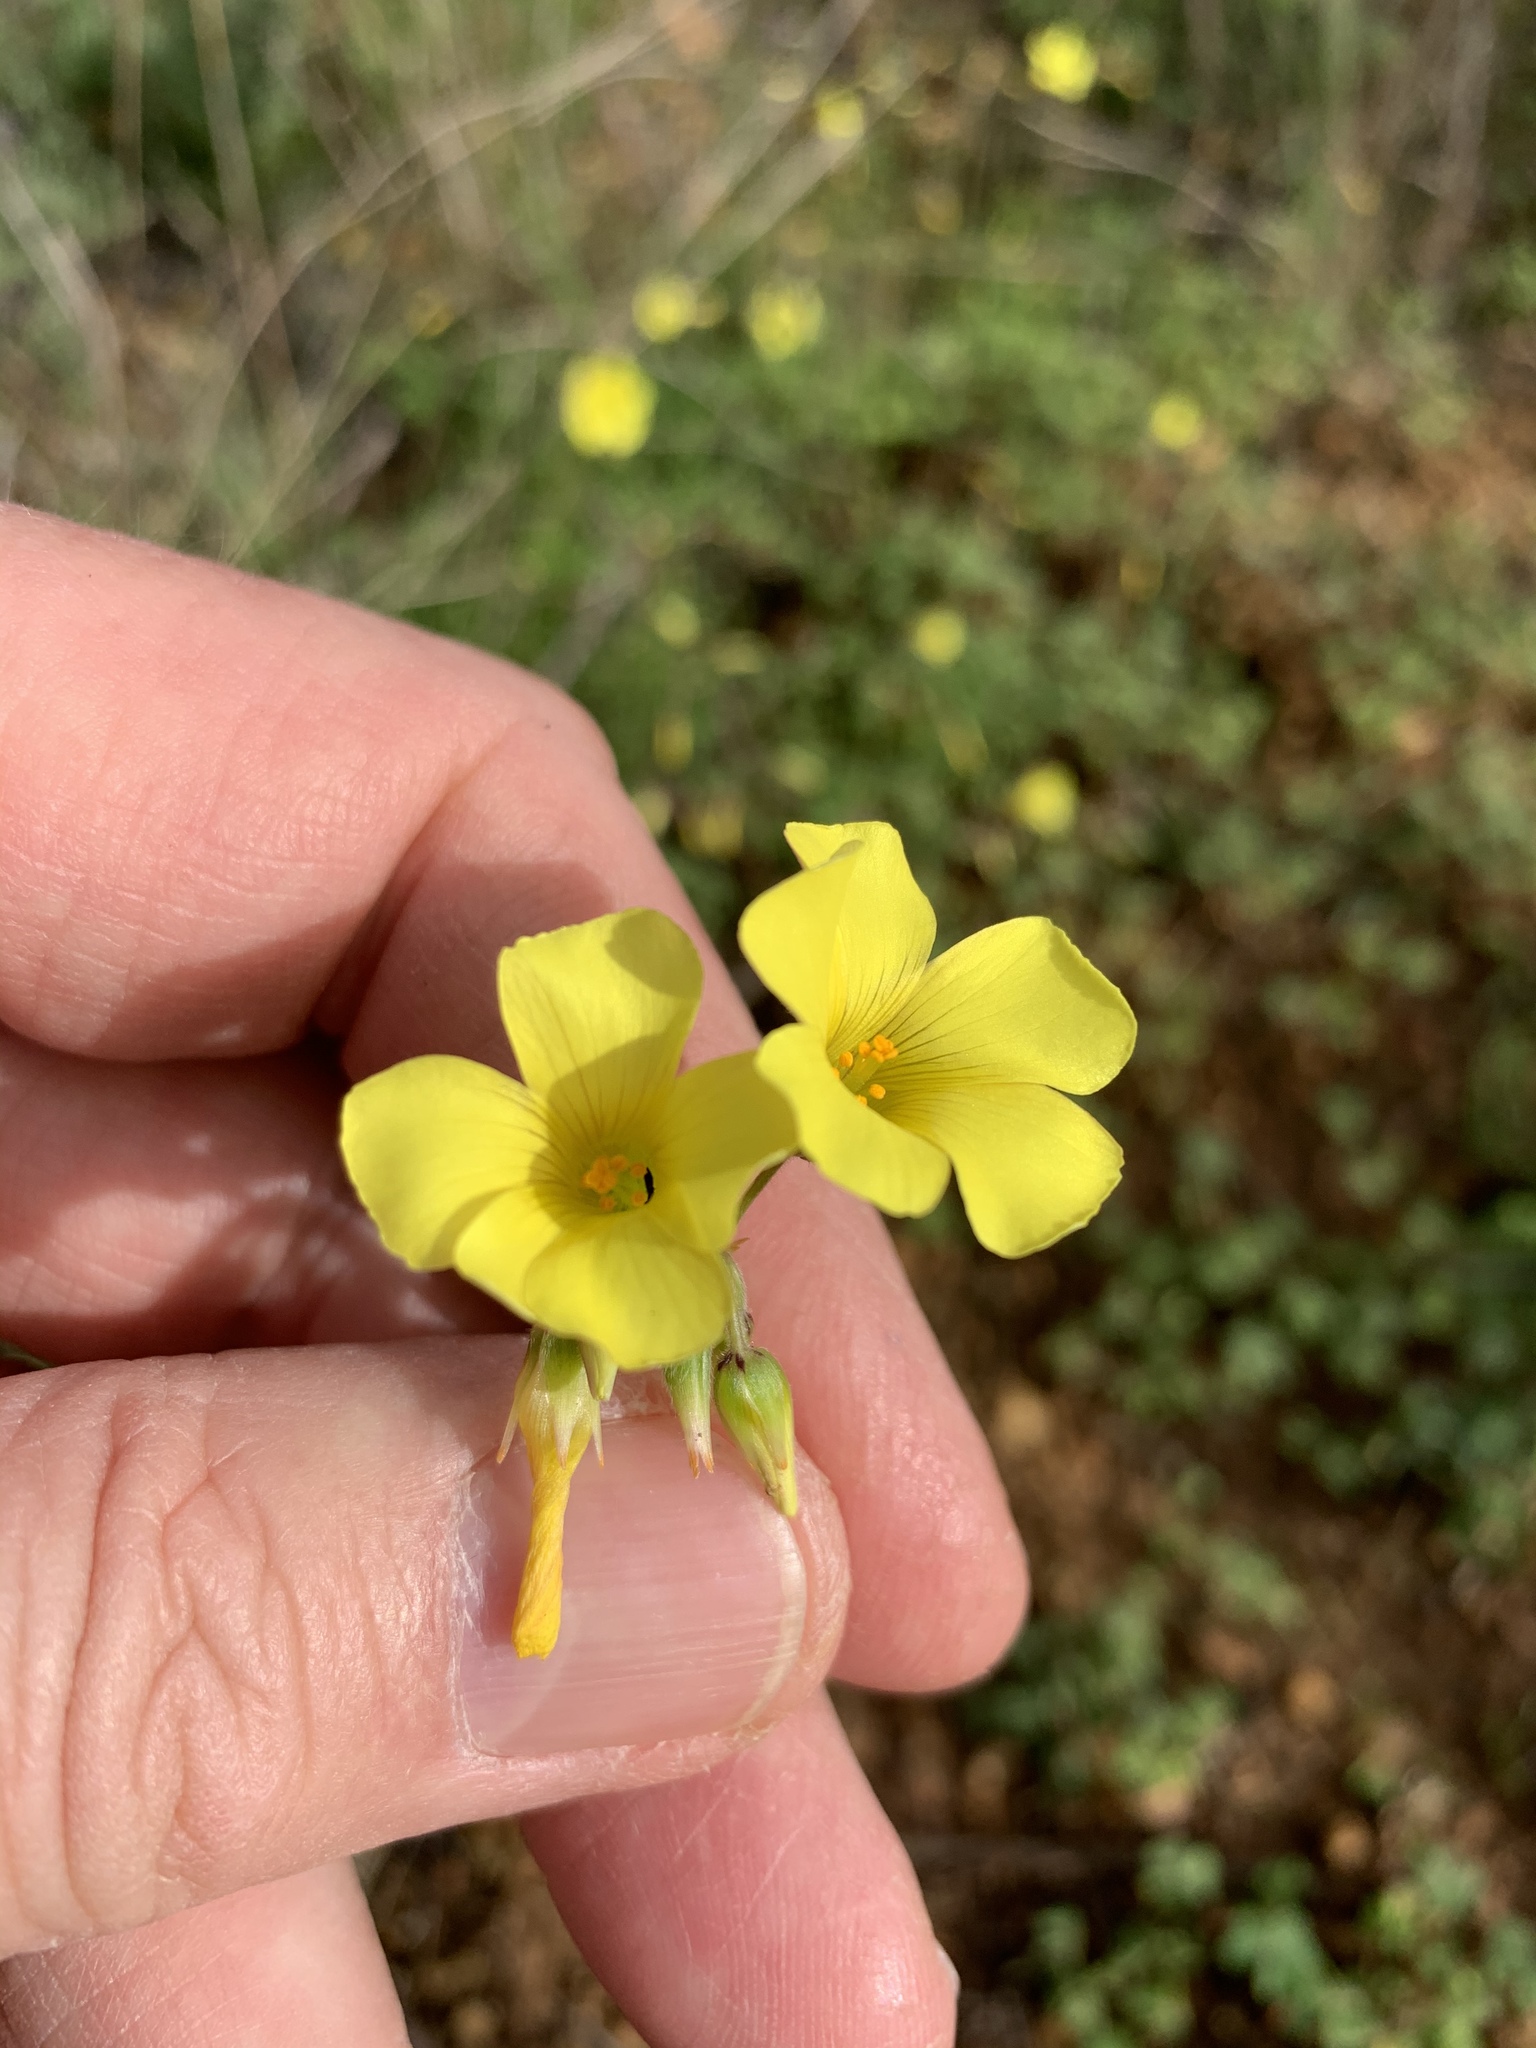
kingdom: Plantae
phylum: Tracheophyta
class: Magnoliopsida
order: Oxalidales
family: Oxalidaceae
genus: Oxalis
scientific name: Oxalis pes-caprae
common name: Bermuda-buttercup
